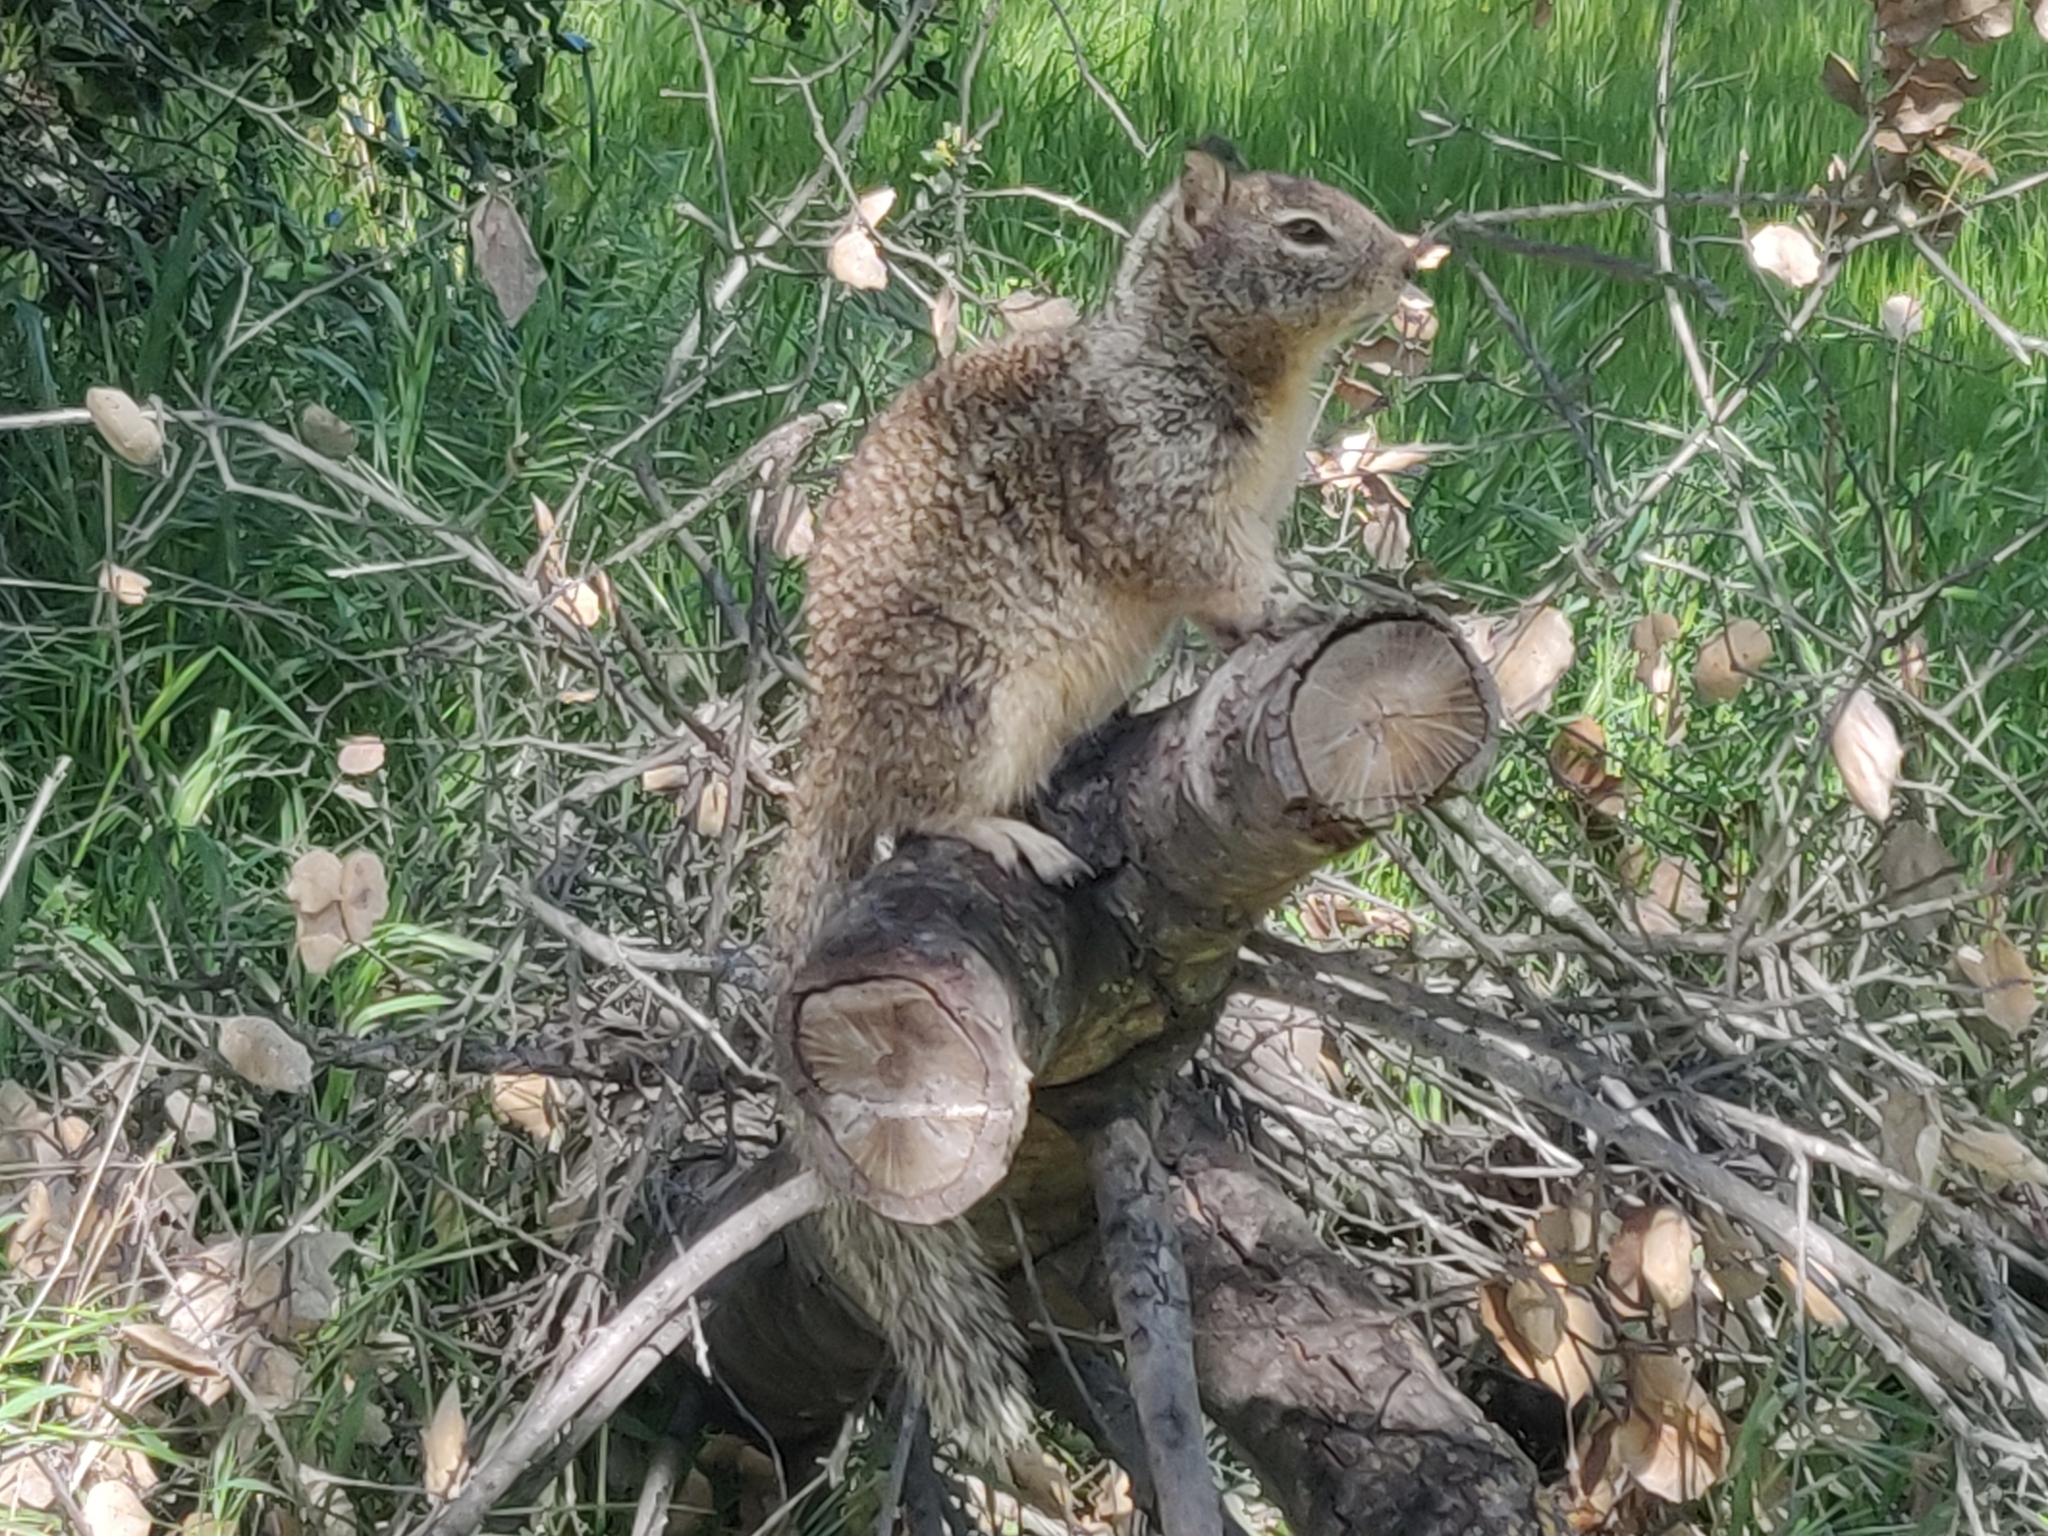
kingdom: Animalia
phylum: Chordata
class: Mammalia
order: Rodentia
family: Sciuridae
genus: Otospermophilus
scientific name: Otospermophilus beecheyi
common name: California ground squirrel
